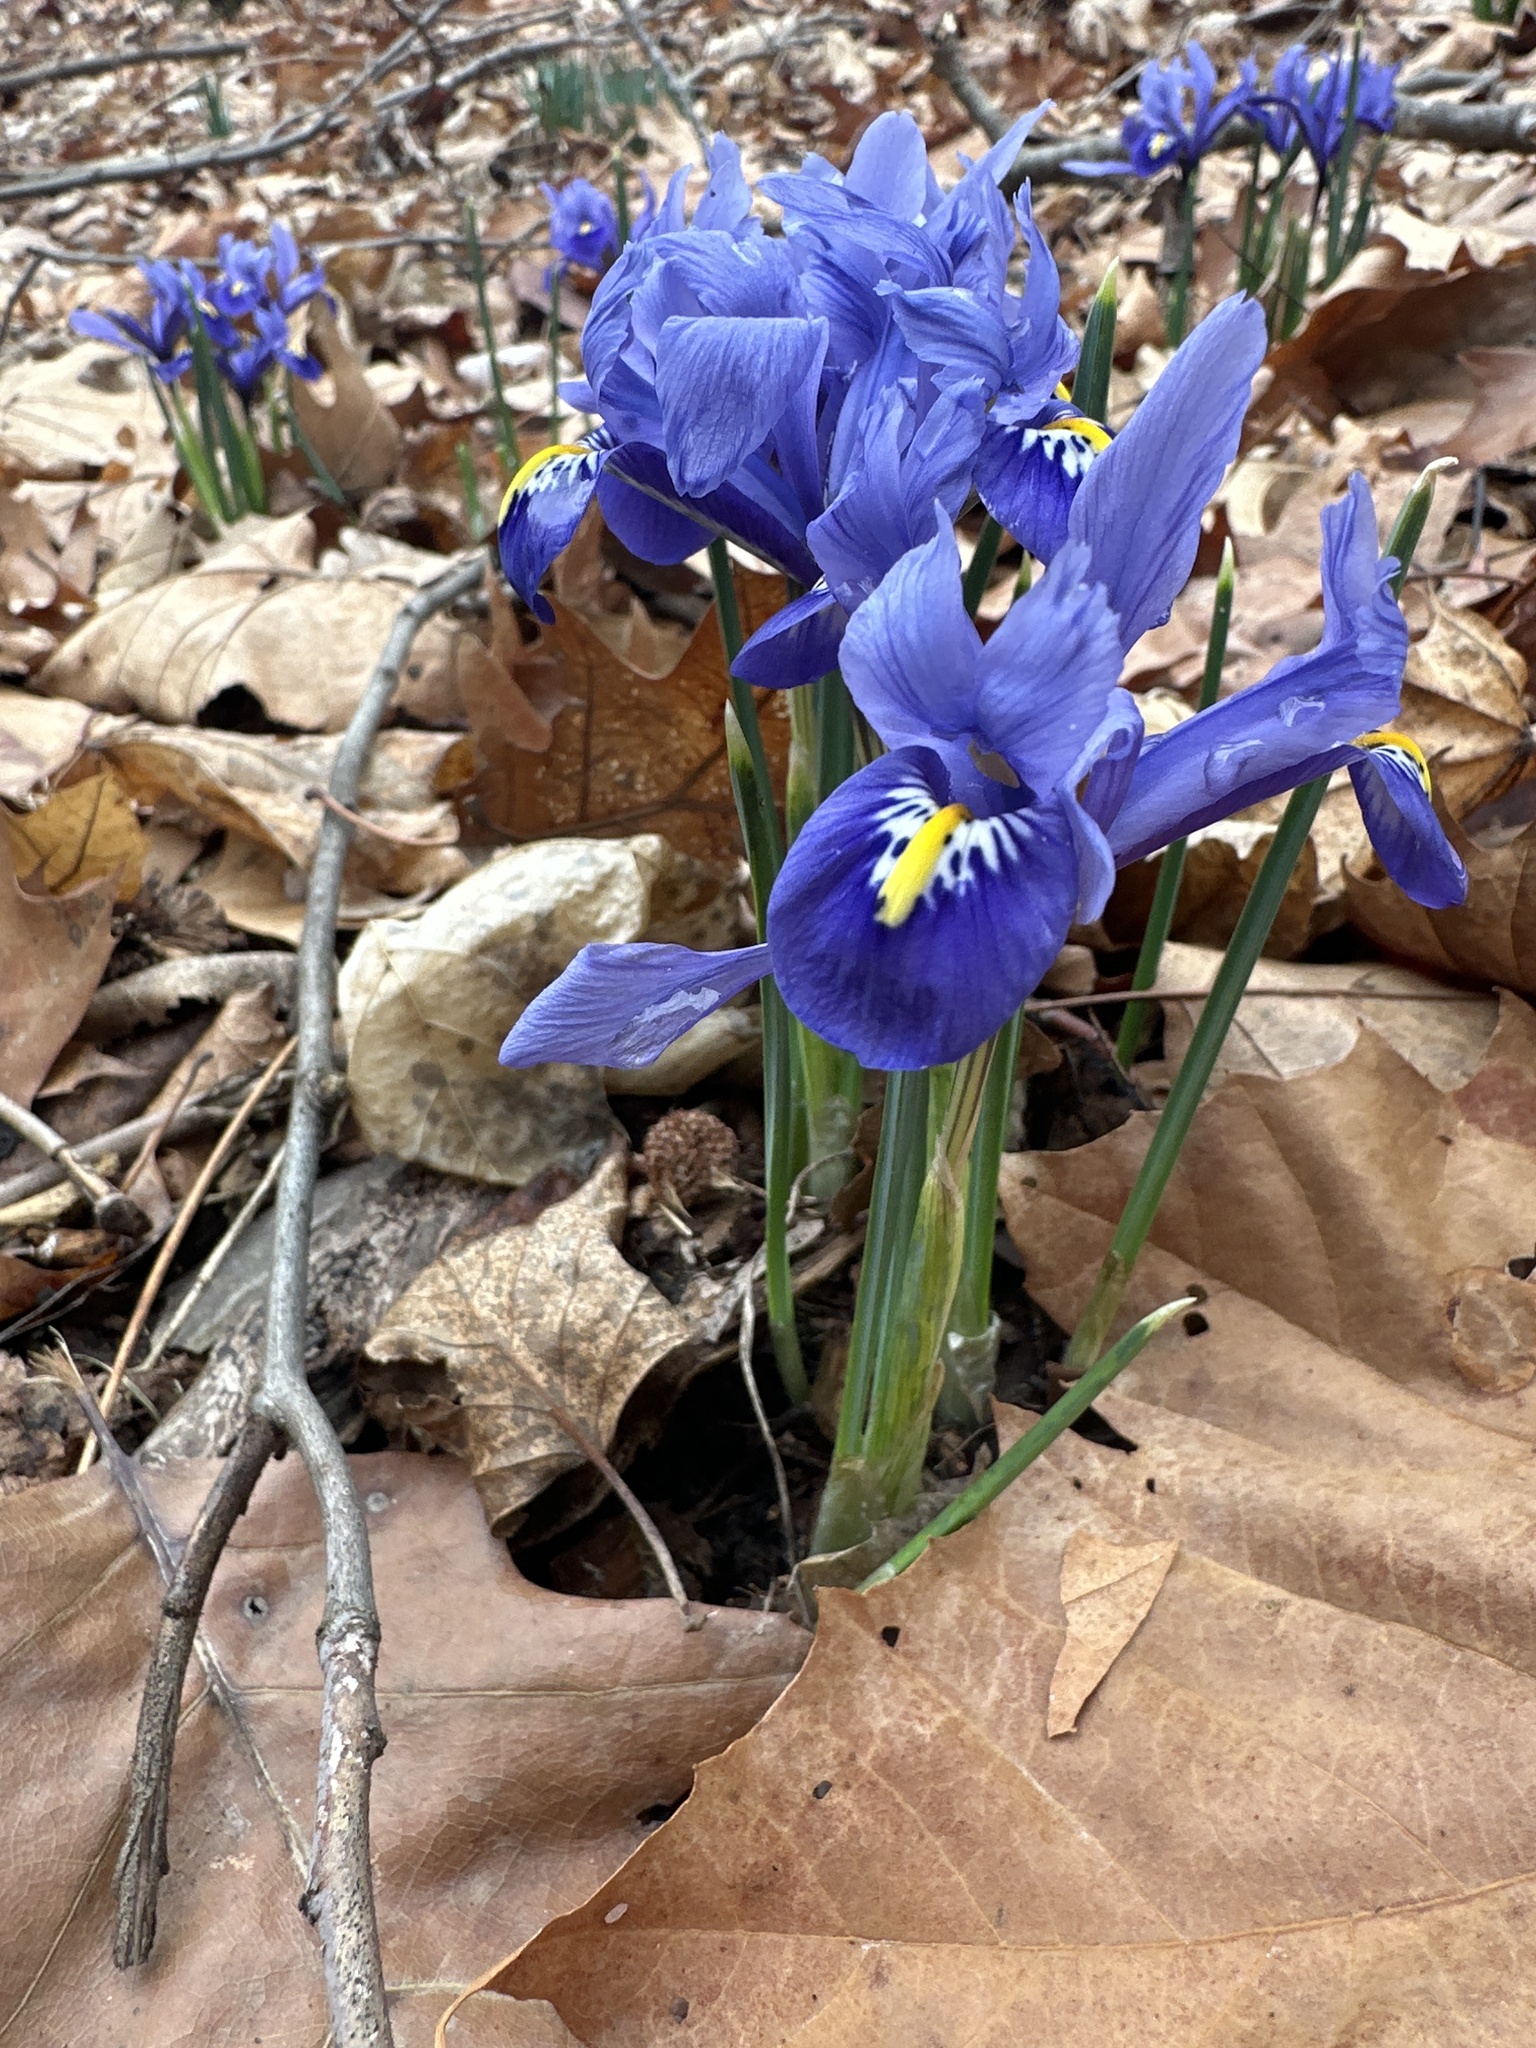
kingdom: Plantae
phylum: Tracheophyta
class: Liliopsida
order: Asparagales
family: Iridaceae
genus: Iris
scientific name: Iris reticulata
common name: Netted iris
